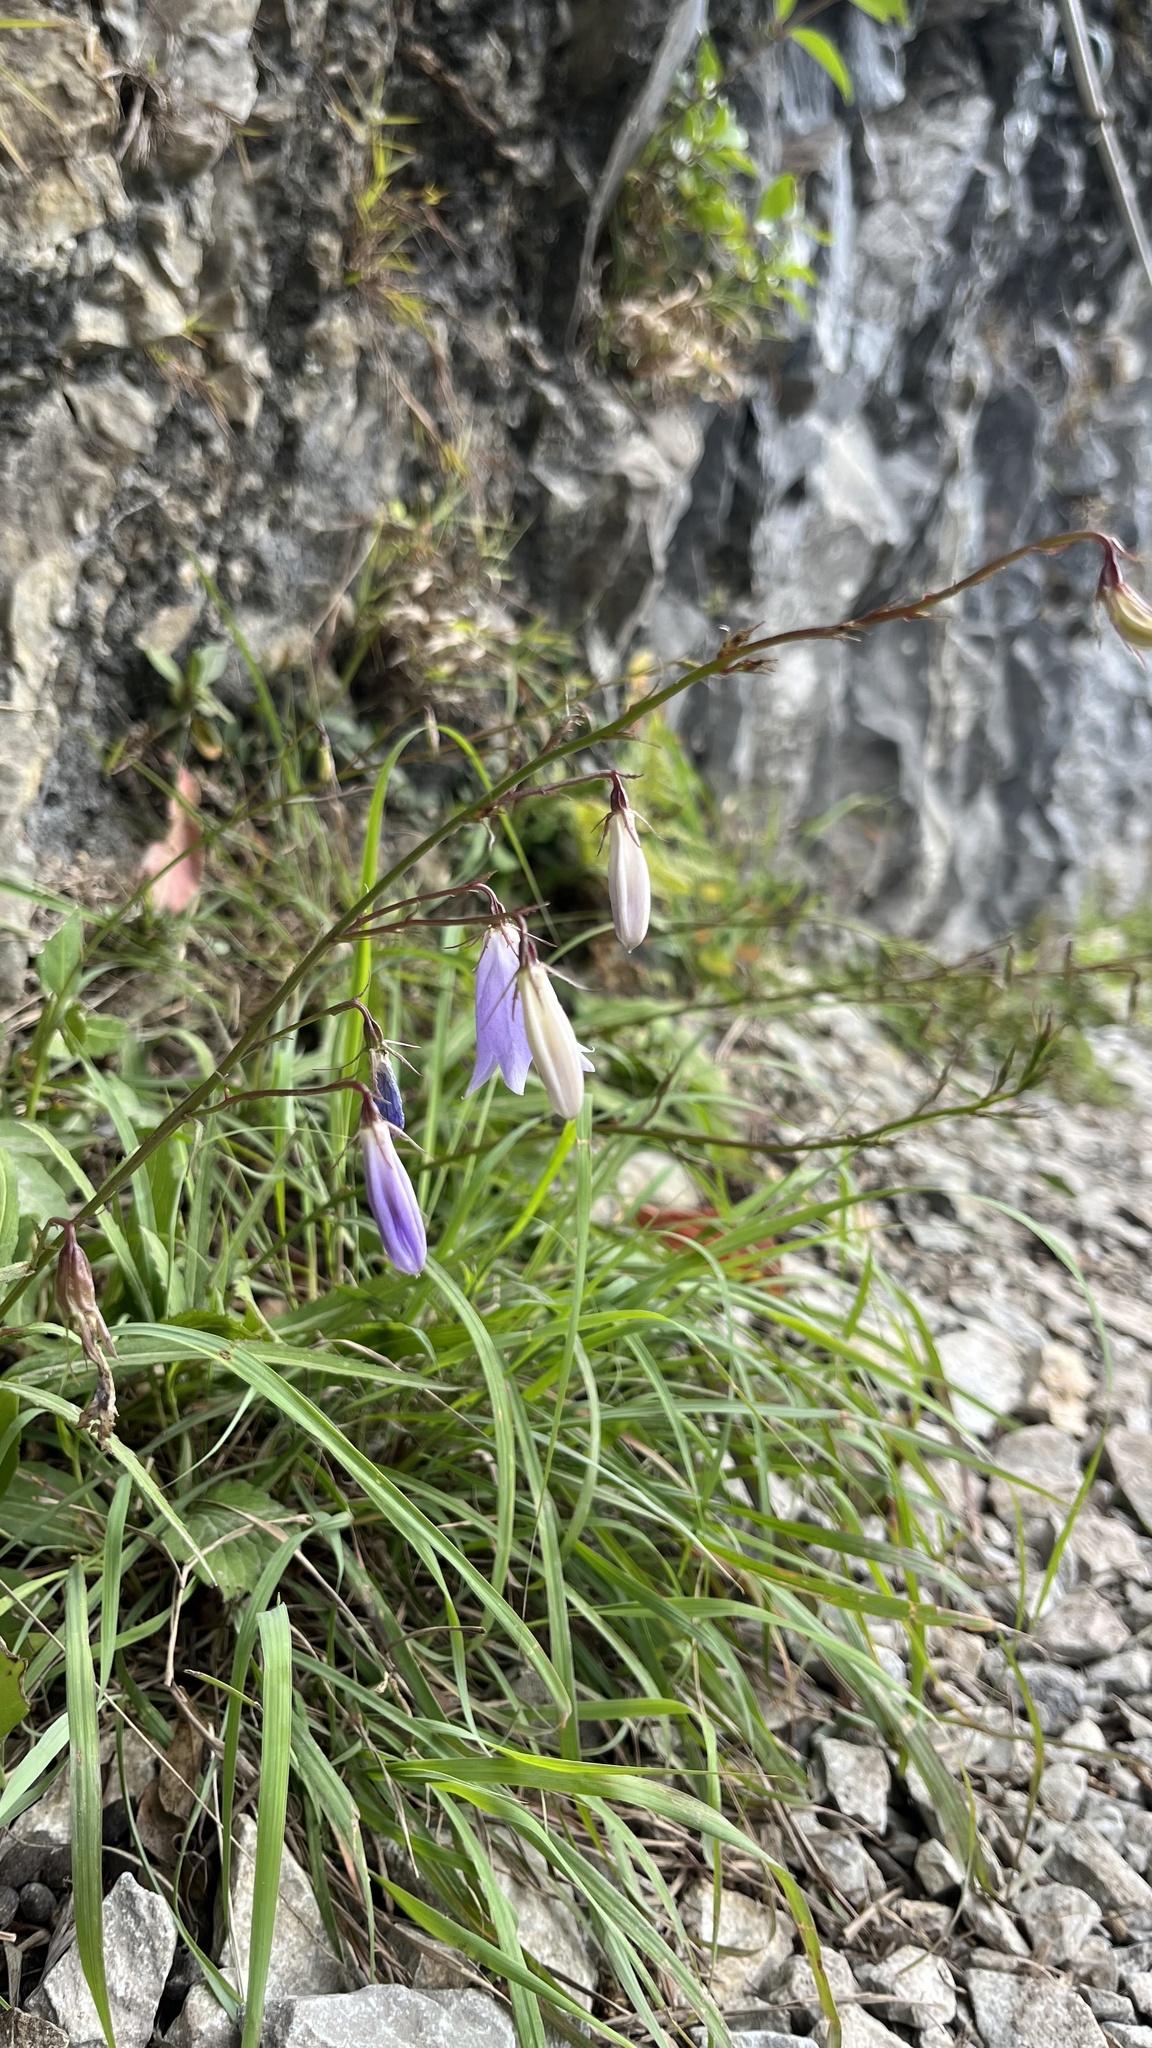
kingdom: Plantae
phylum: Tracheophyta
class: Magnoliopsida
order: Asterales
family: Campanulaceae
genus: Adenophora
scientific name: Adenophora morrisonensis
